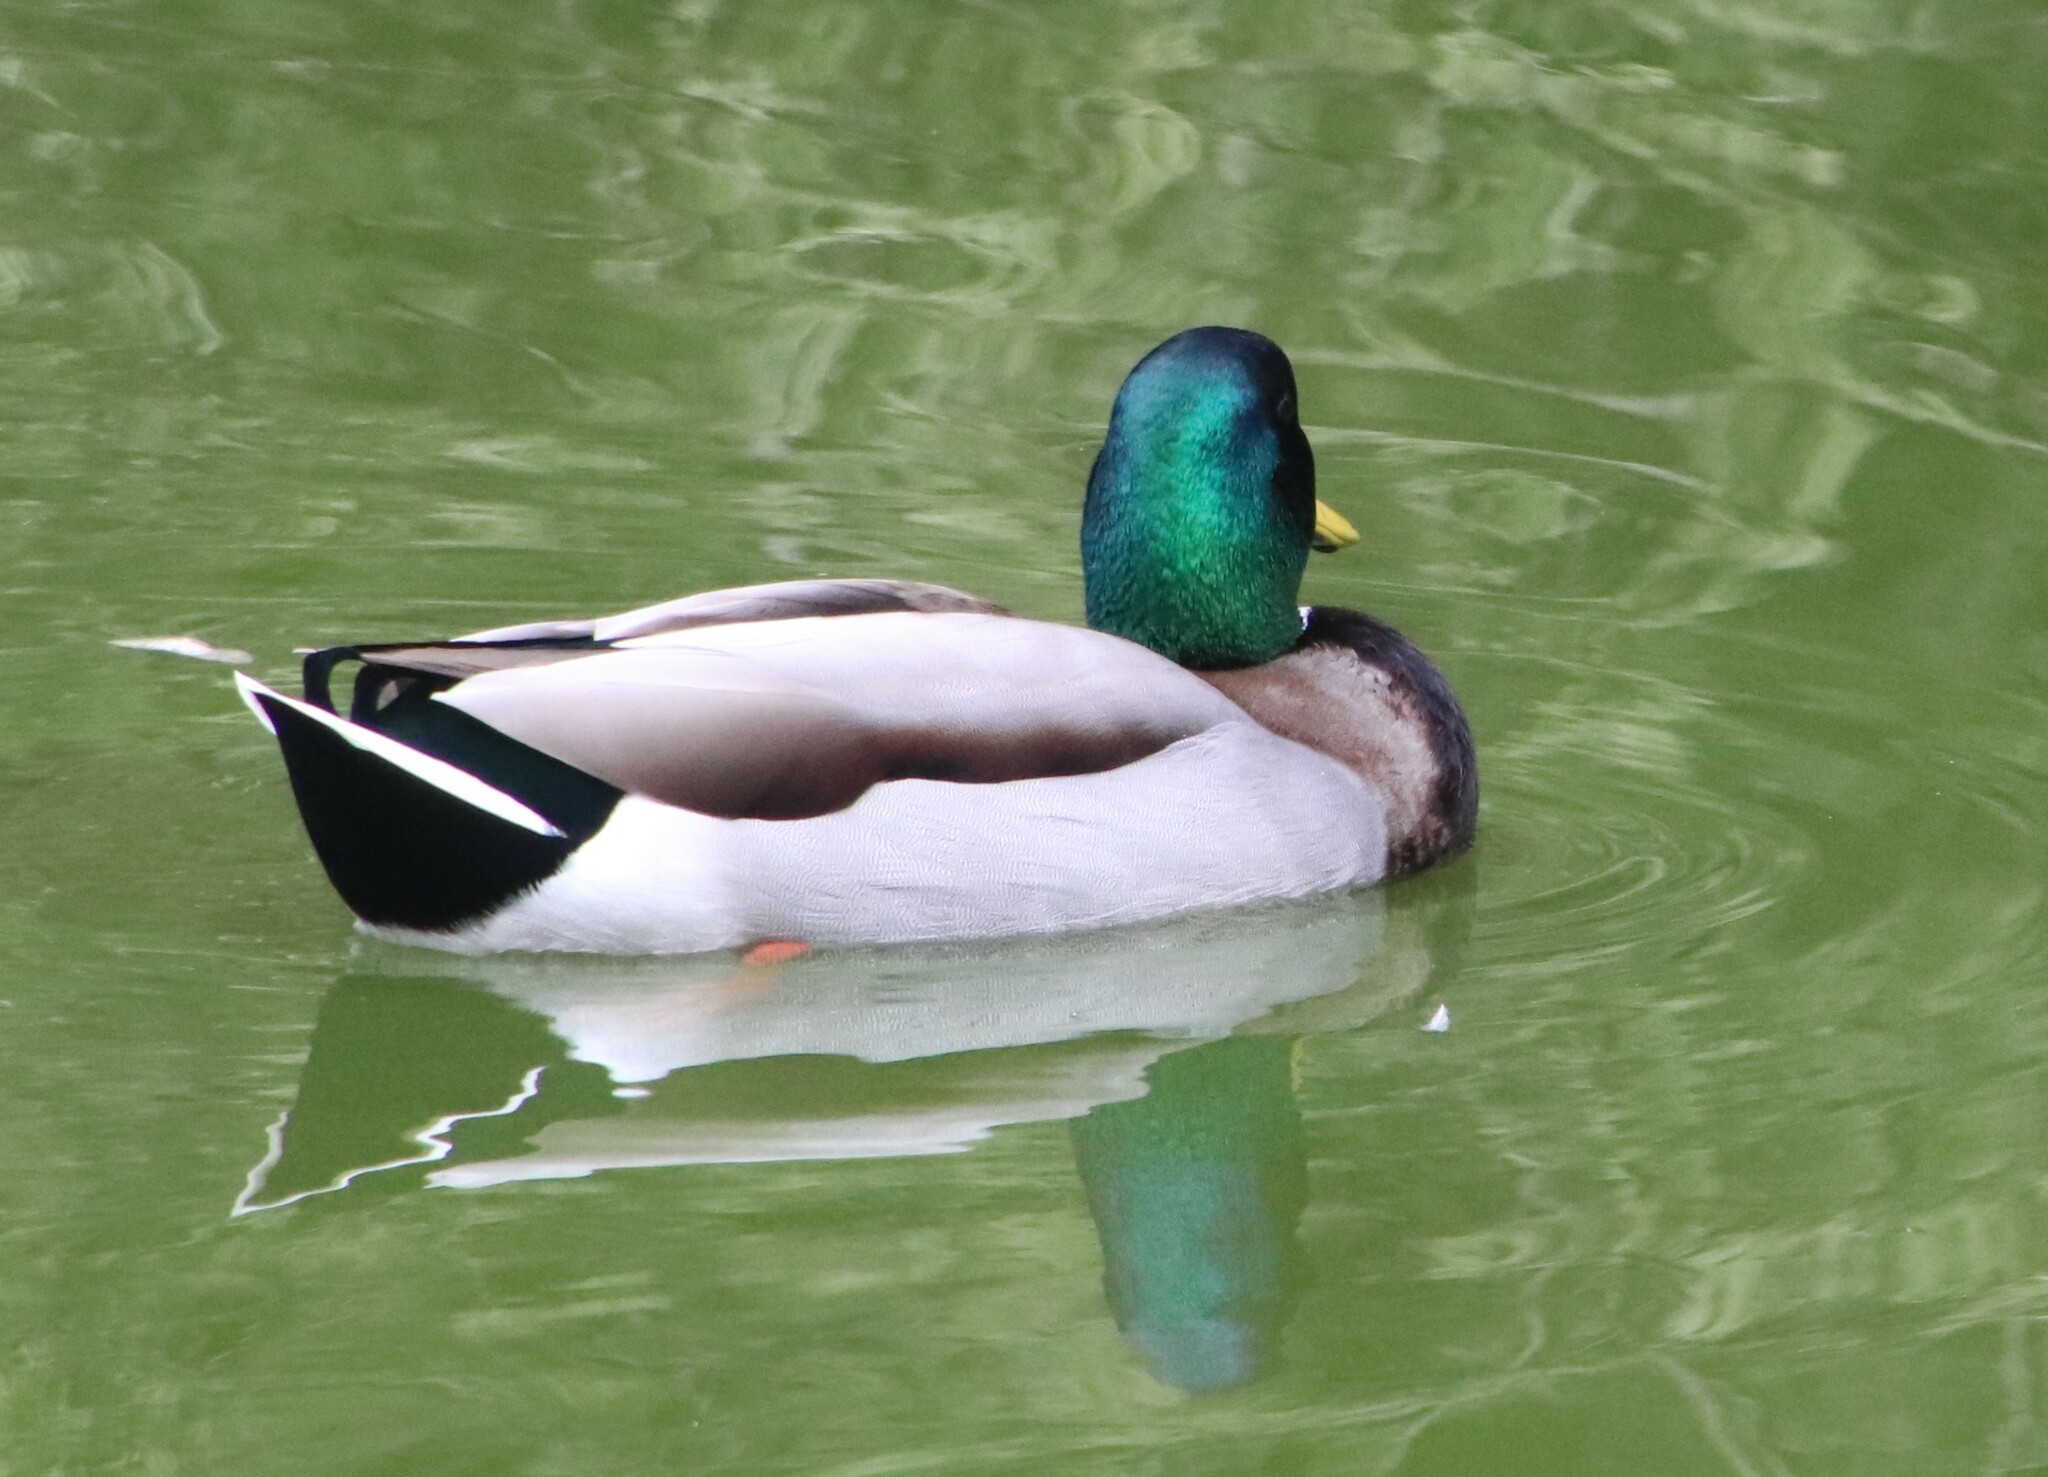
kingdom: Animalia
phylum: Chordata
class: Aves
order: Anseriformes
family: Anatidae
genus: Anas
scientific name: Anas platyrhynchos
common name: Mallard
